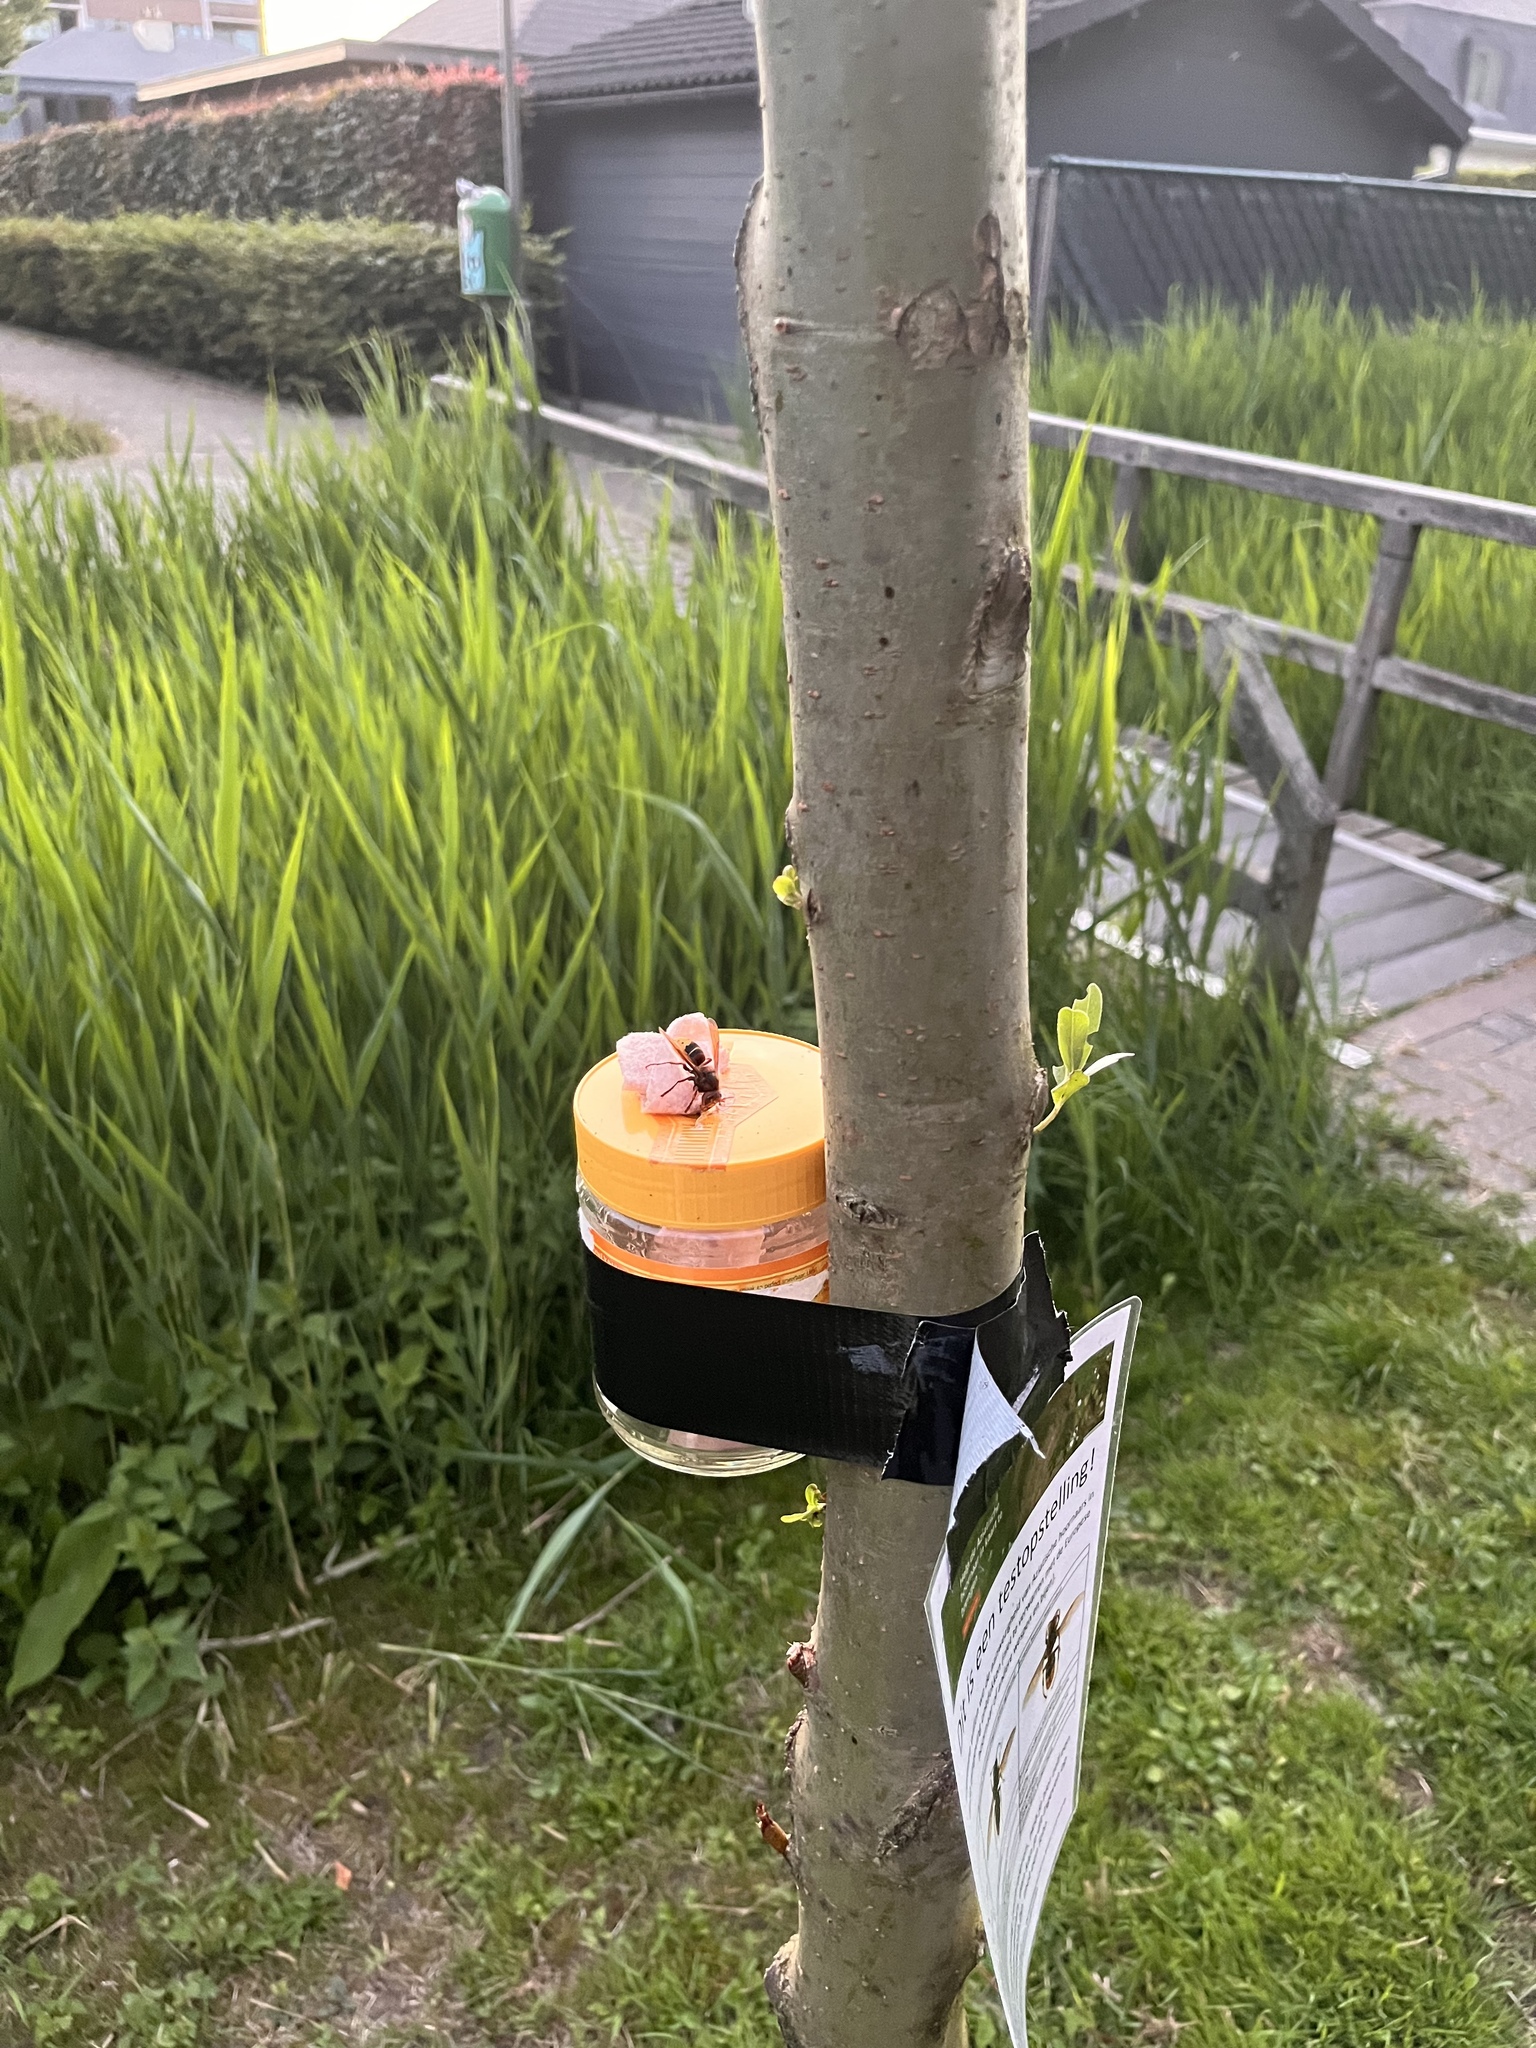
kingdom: Animalia
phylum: Arthropoda
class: Insecta
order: Hymenoptera
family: Vespidae
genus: Vespa
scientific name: Vespa crabro
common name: Hornet
